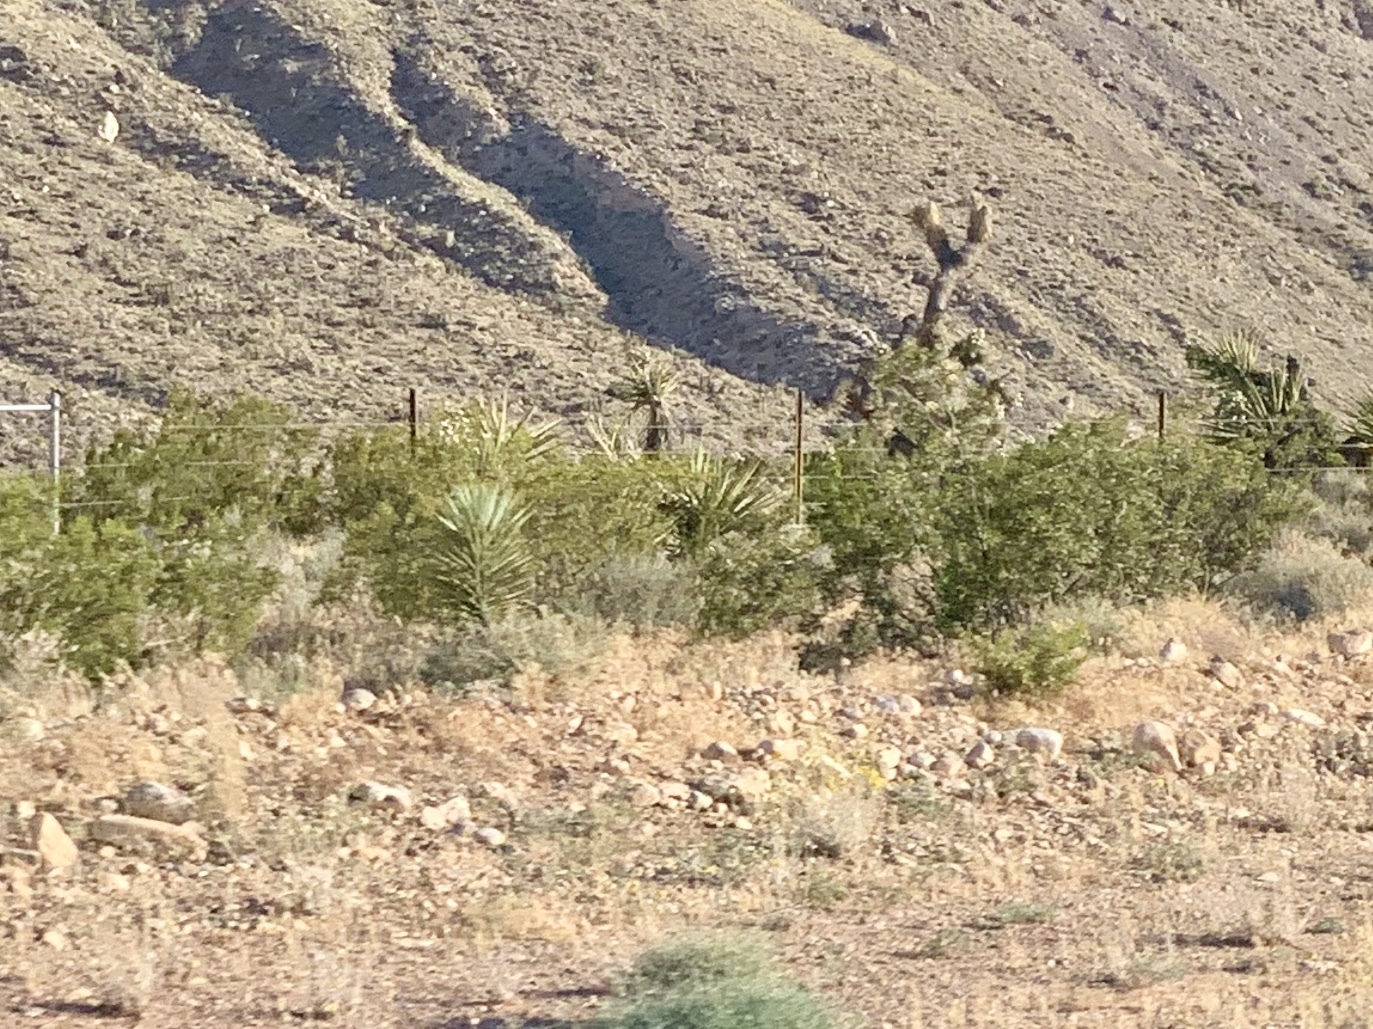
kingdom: Plantae
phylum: Tracheophyta
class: Magnoliopsida
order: Zygophyllales
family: Zygophyllaceae
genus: Larrea
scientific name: Larrea tridentata
